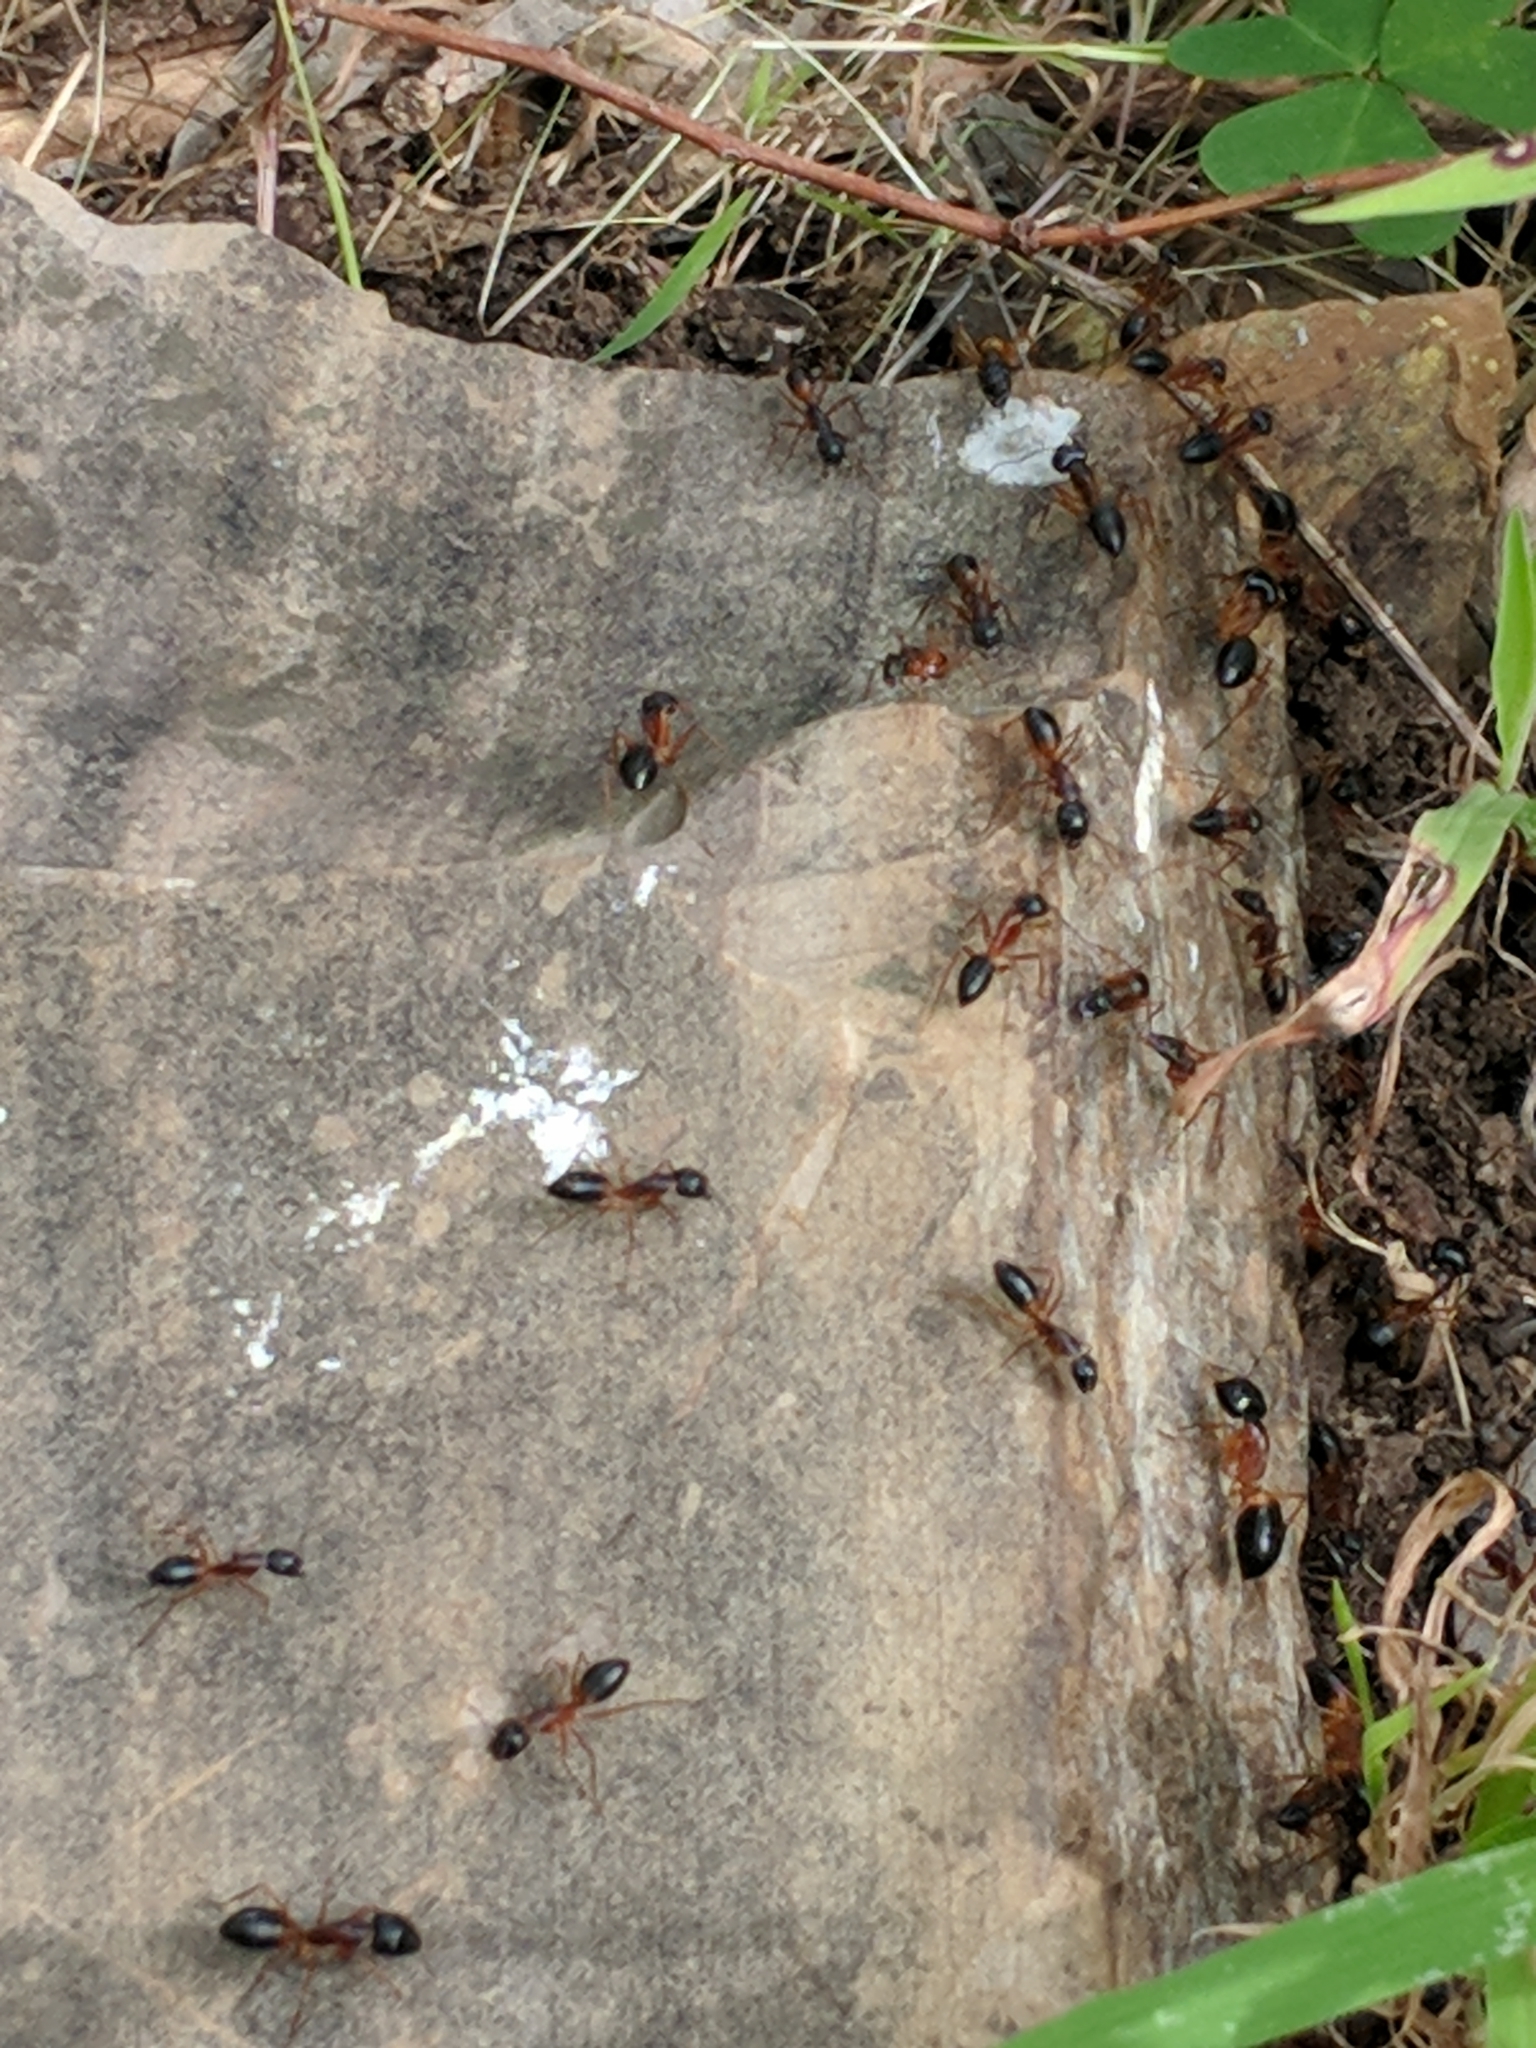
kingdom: Animalia
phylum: Arthropoda
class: Insecta
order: Hymenoptera
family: Formicidae
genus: Camponotus
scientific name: Camponotus consobrinus
